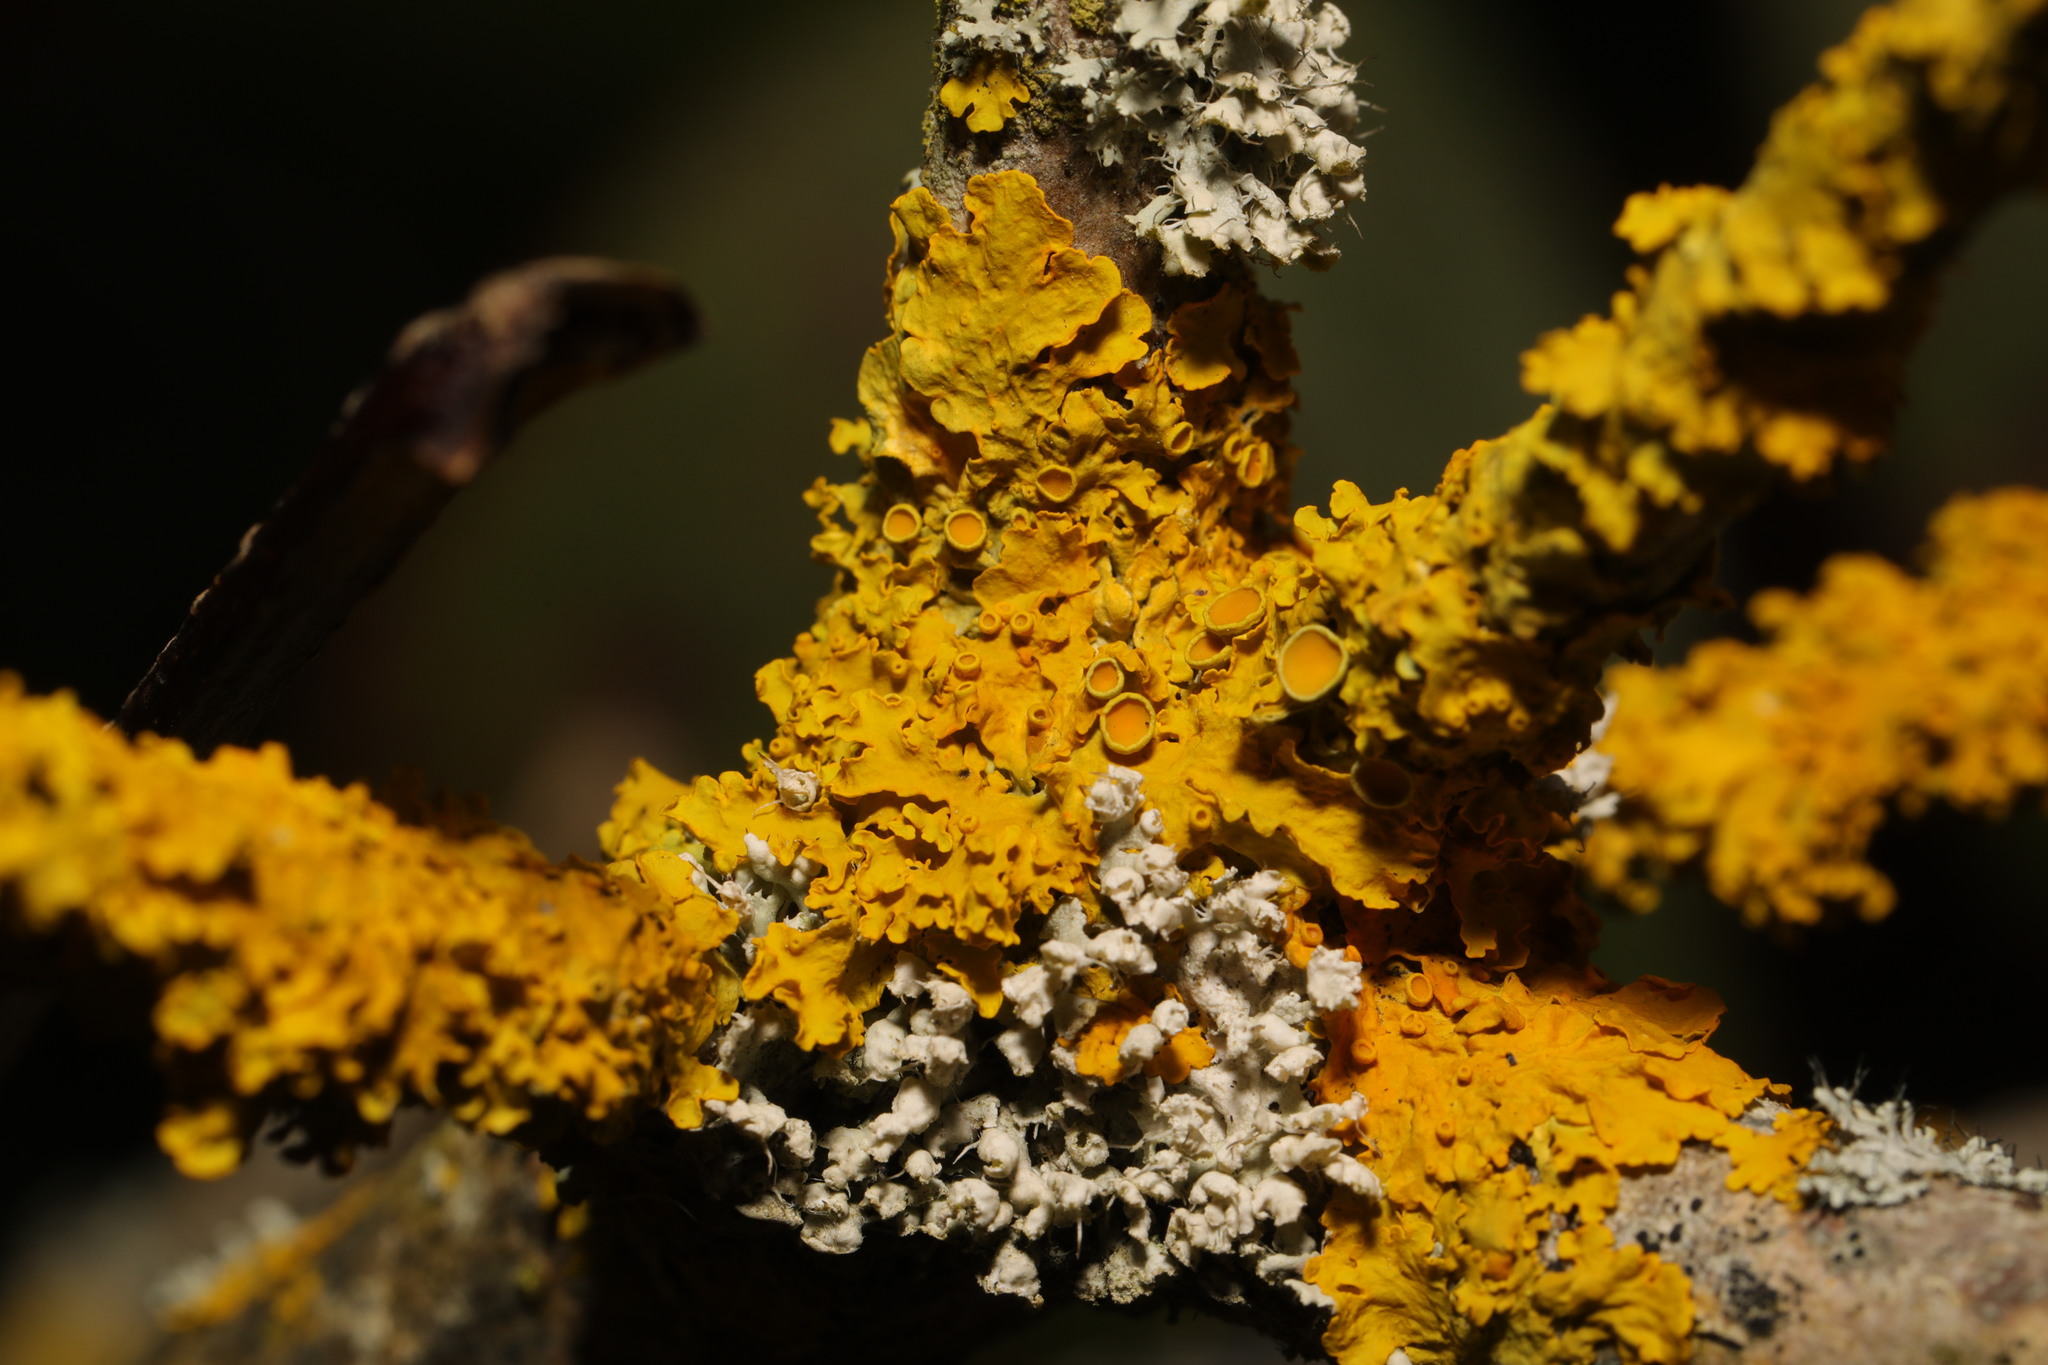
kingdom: Fungi
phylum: Ascomycota
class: Lecanoromycetes
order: Teloschistales
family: Teloschistaceae
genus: Xanthoria
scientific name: Xanthoria parietina
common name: Common orange lichen
